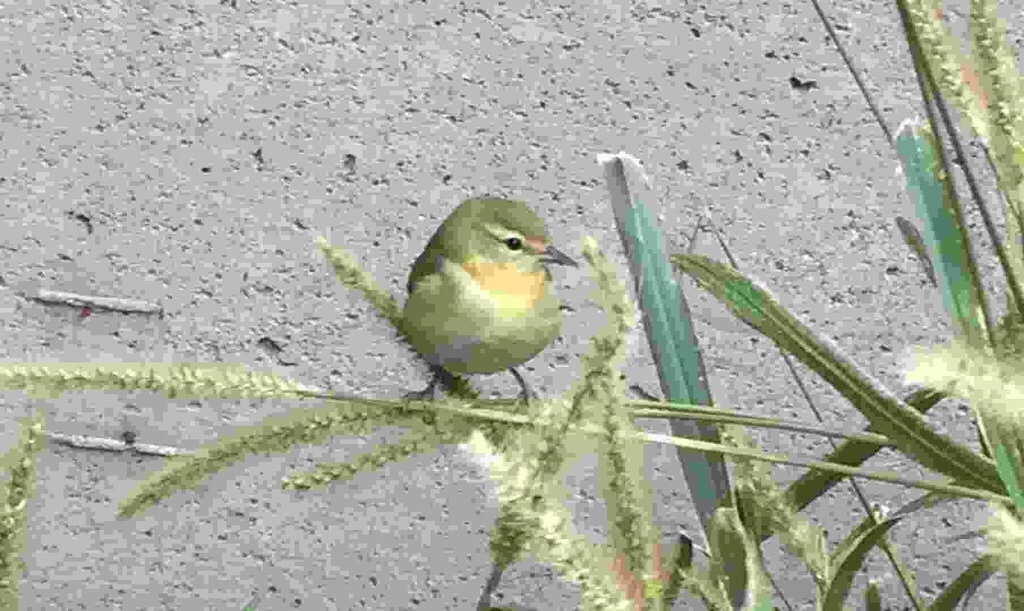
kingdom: Animalia
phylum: Chordata
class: Aves
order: Passeriformes
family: Parulidae
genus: Leiothlypis
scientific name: Leiothlypis peregrina
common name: Tennessee warbler
